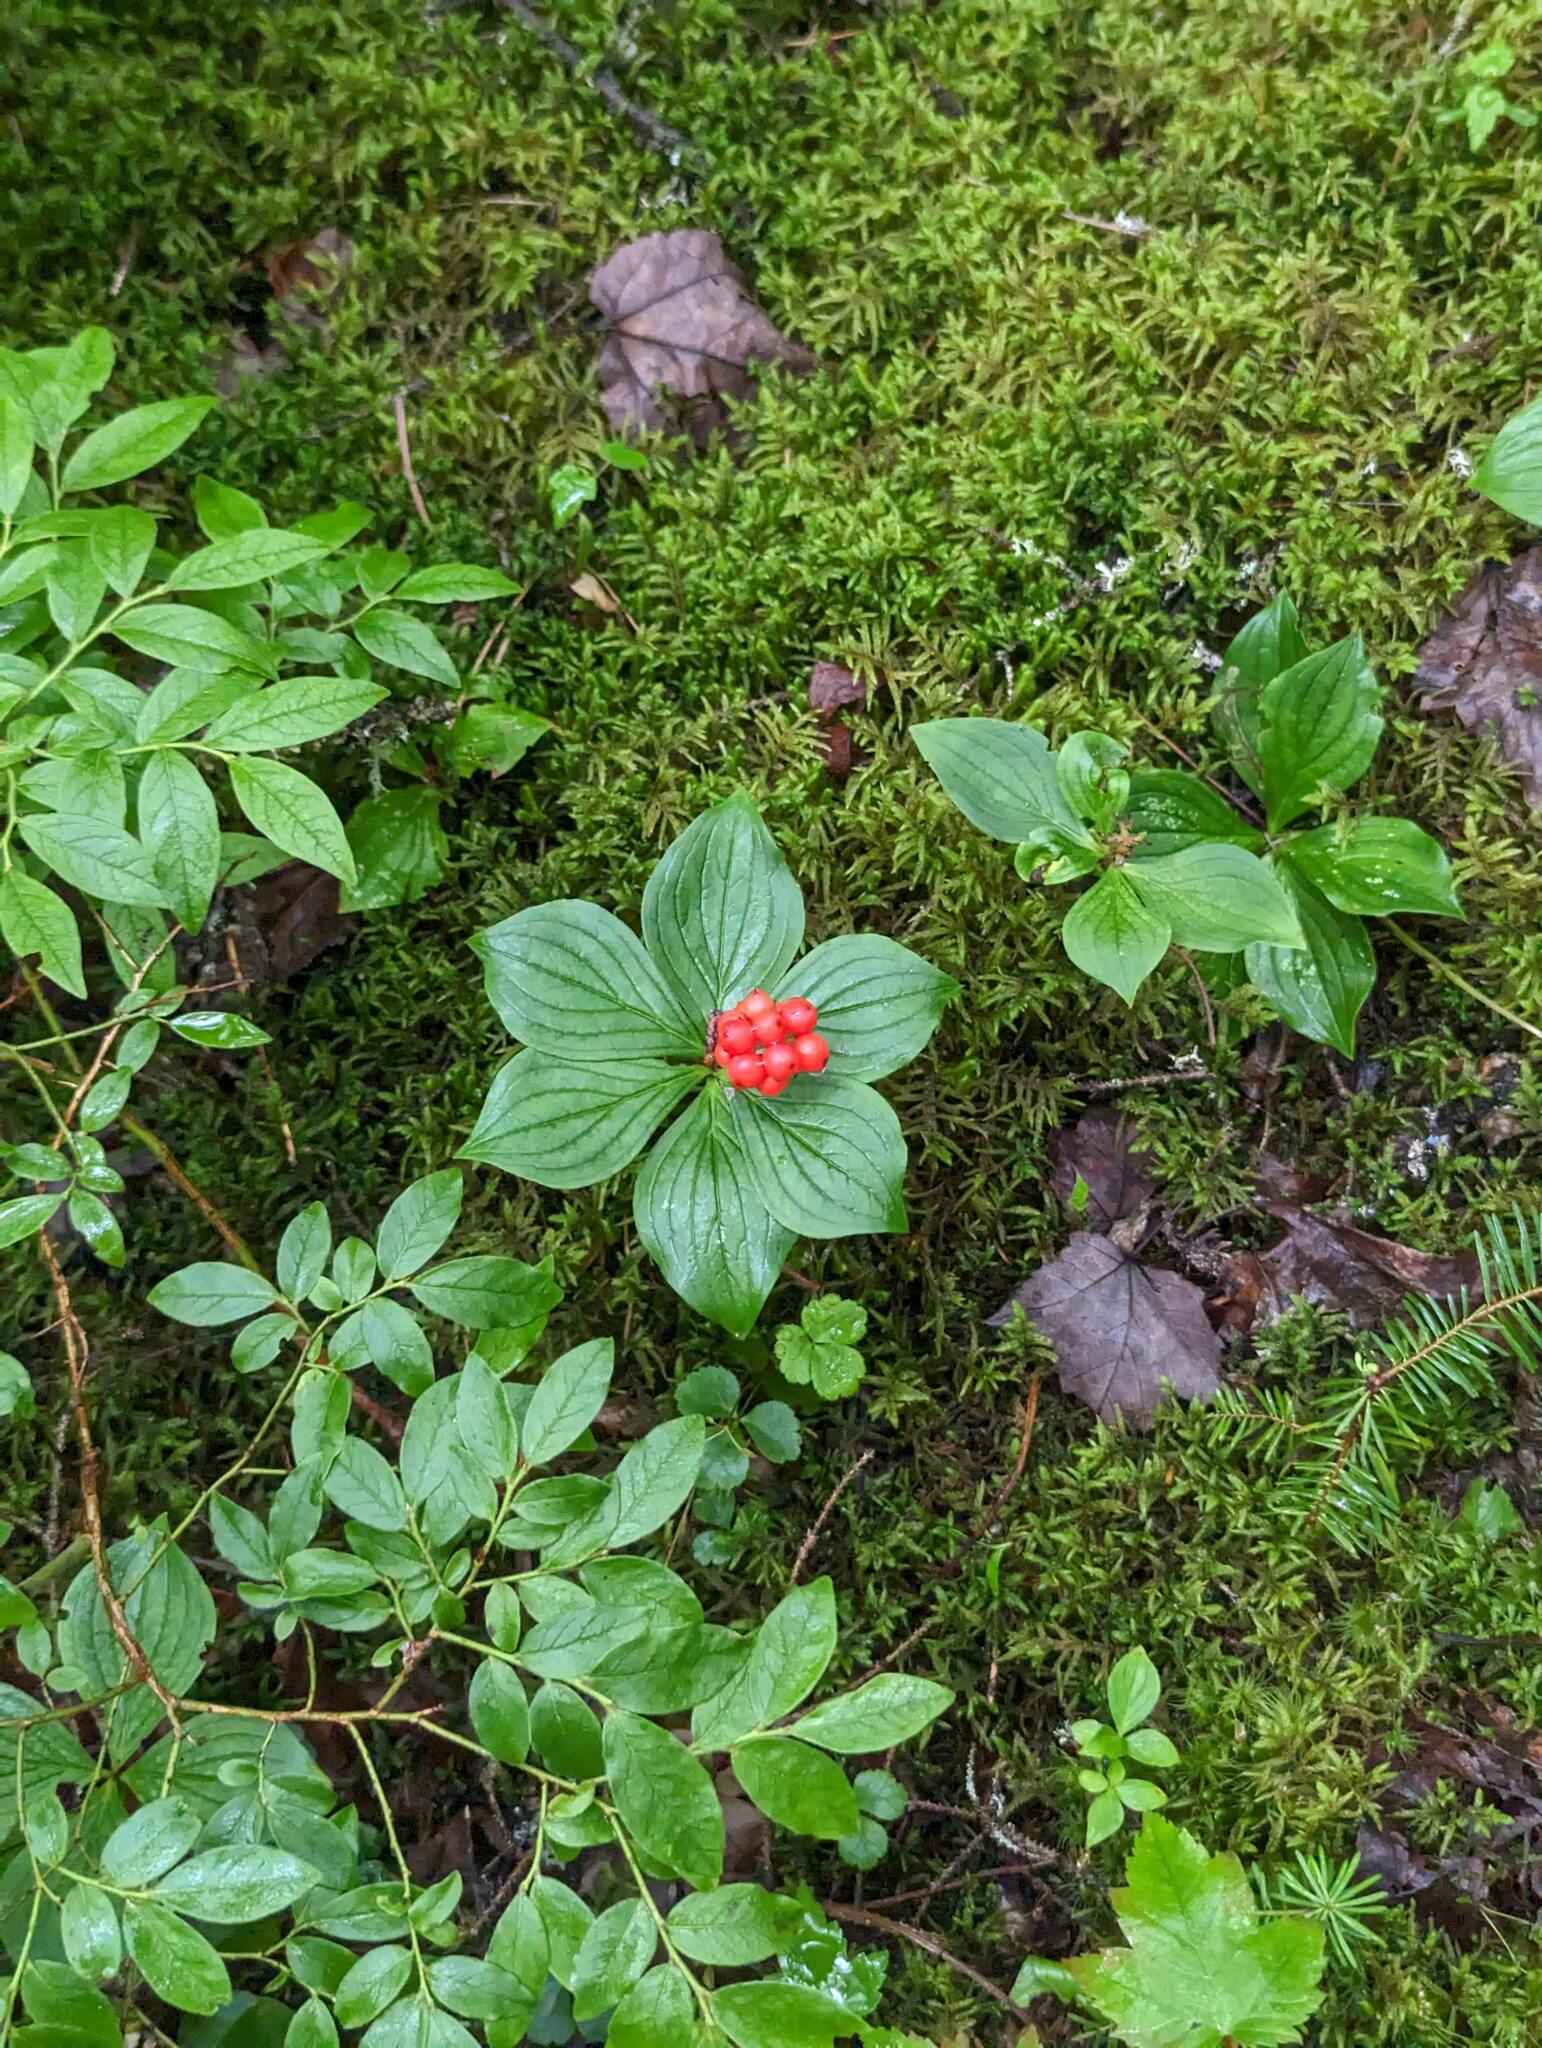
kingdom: Plantae
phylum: Tracheophyta
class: Magnoliopsida
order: Cornales
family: Cornaceae
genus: Cornus
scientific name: Cornus canadensis
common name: Creeping dogwood
